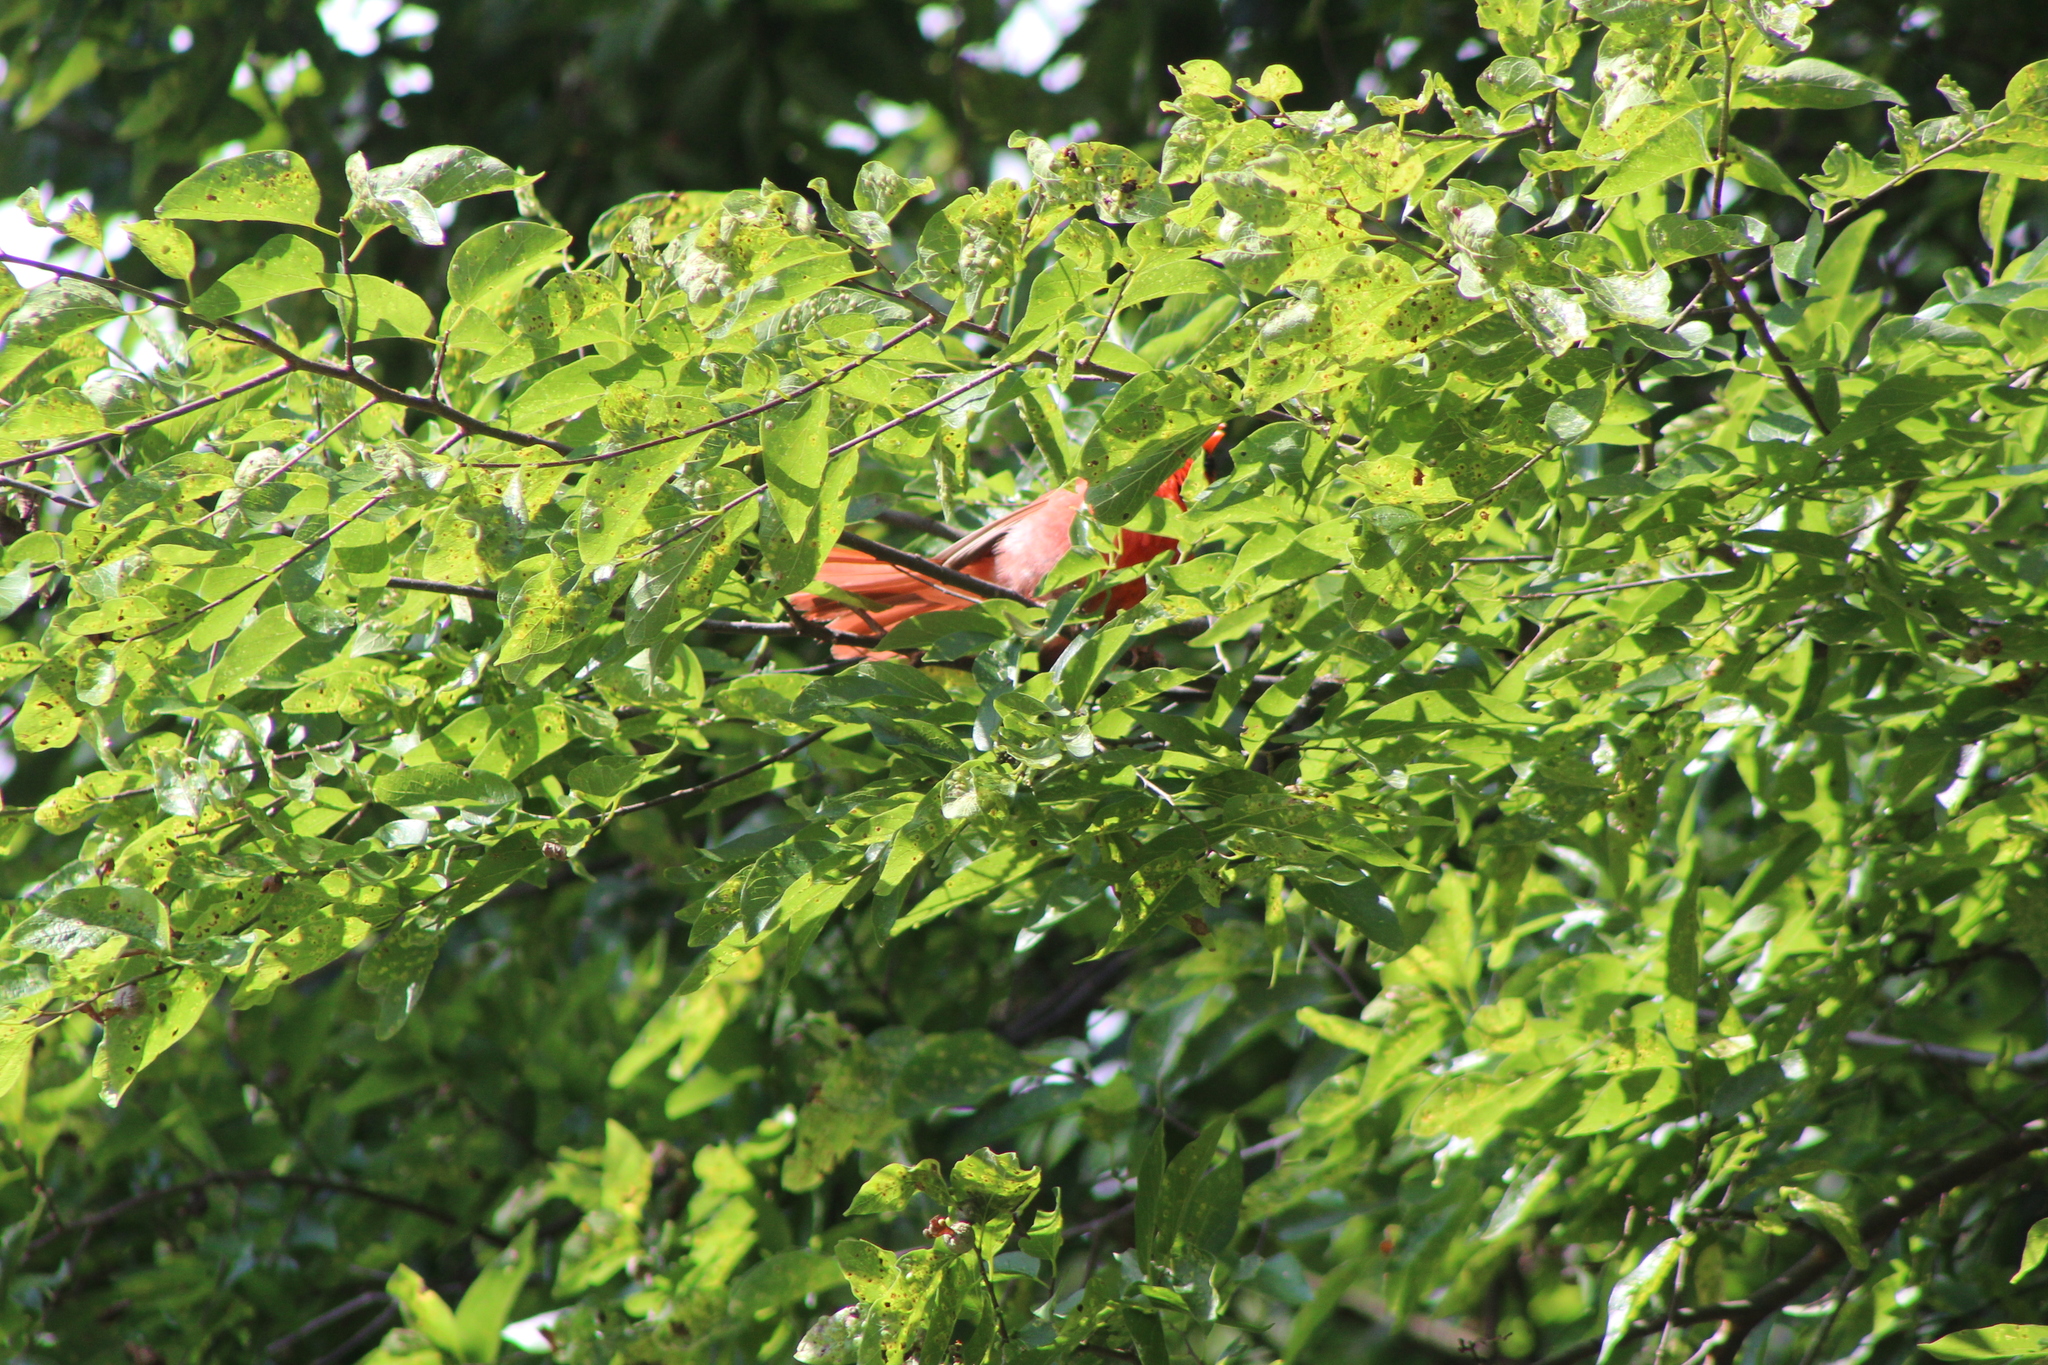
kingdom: Animalia
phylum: Chordata
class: Aves
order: Passeriformes
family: Cardinalidae
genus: Cardinalis
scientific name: Cardinalis cardinalis
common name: Northern cardinal
